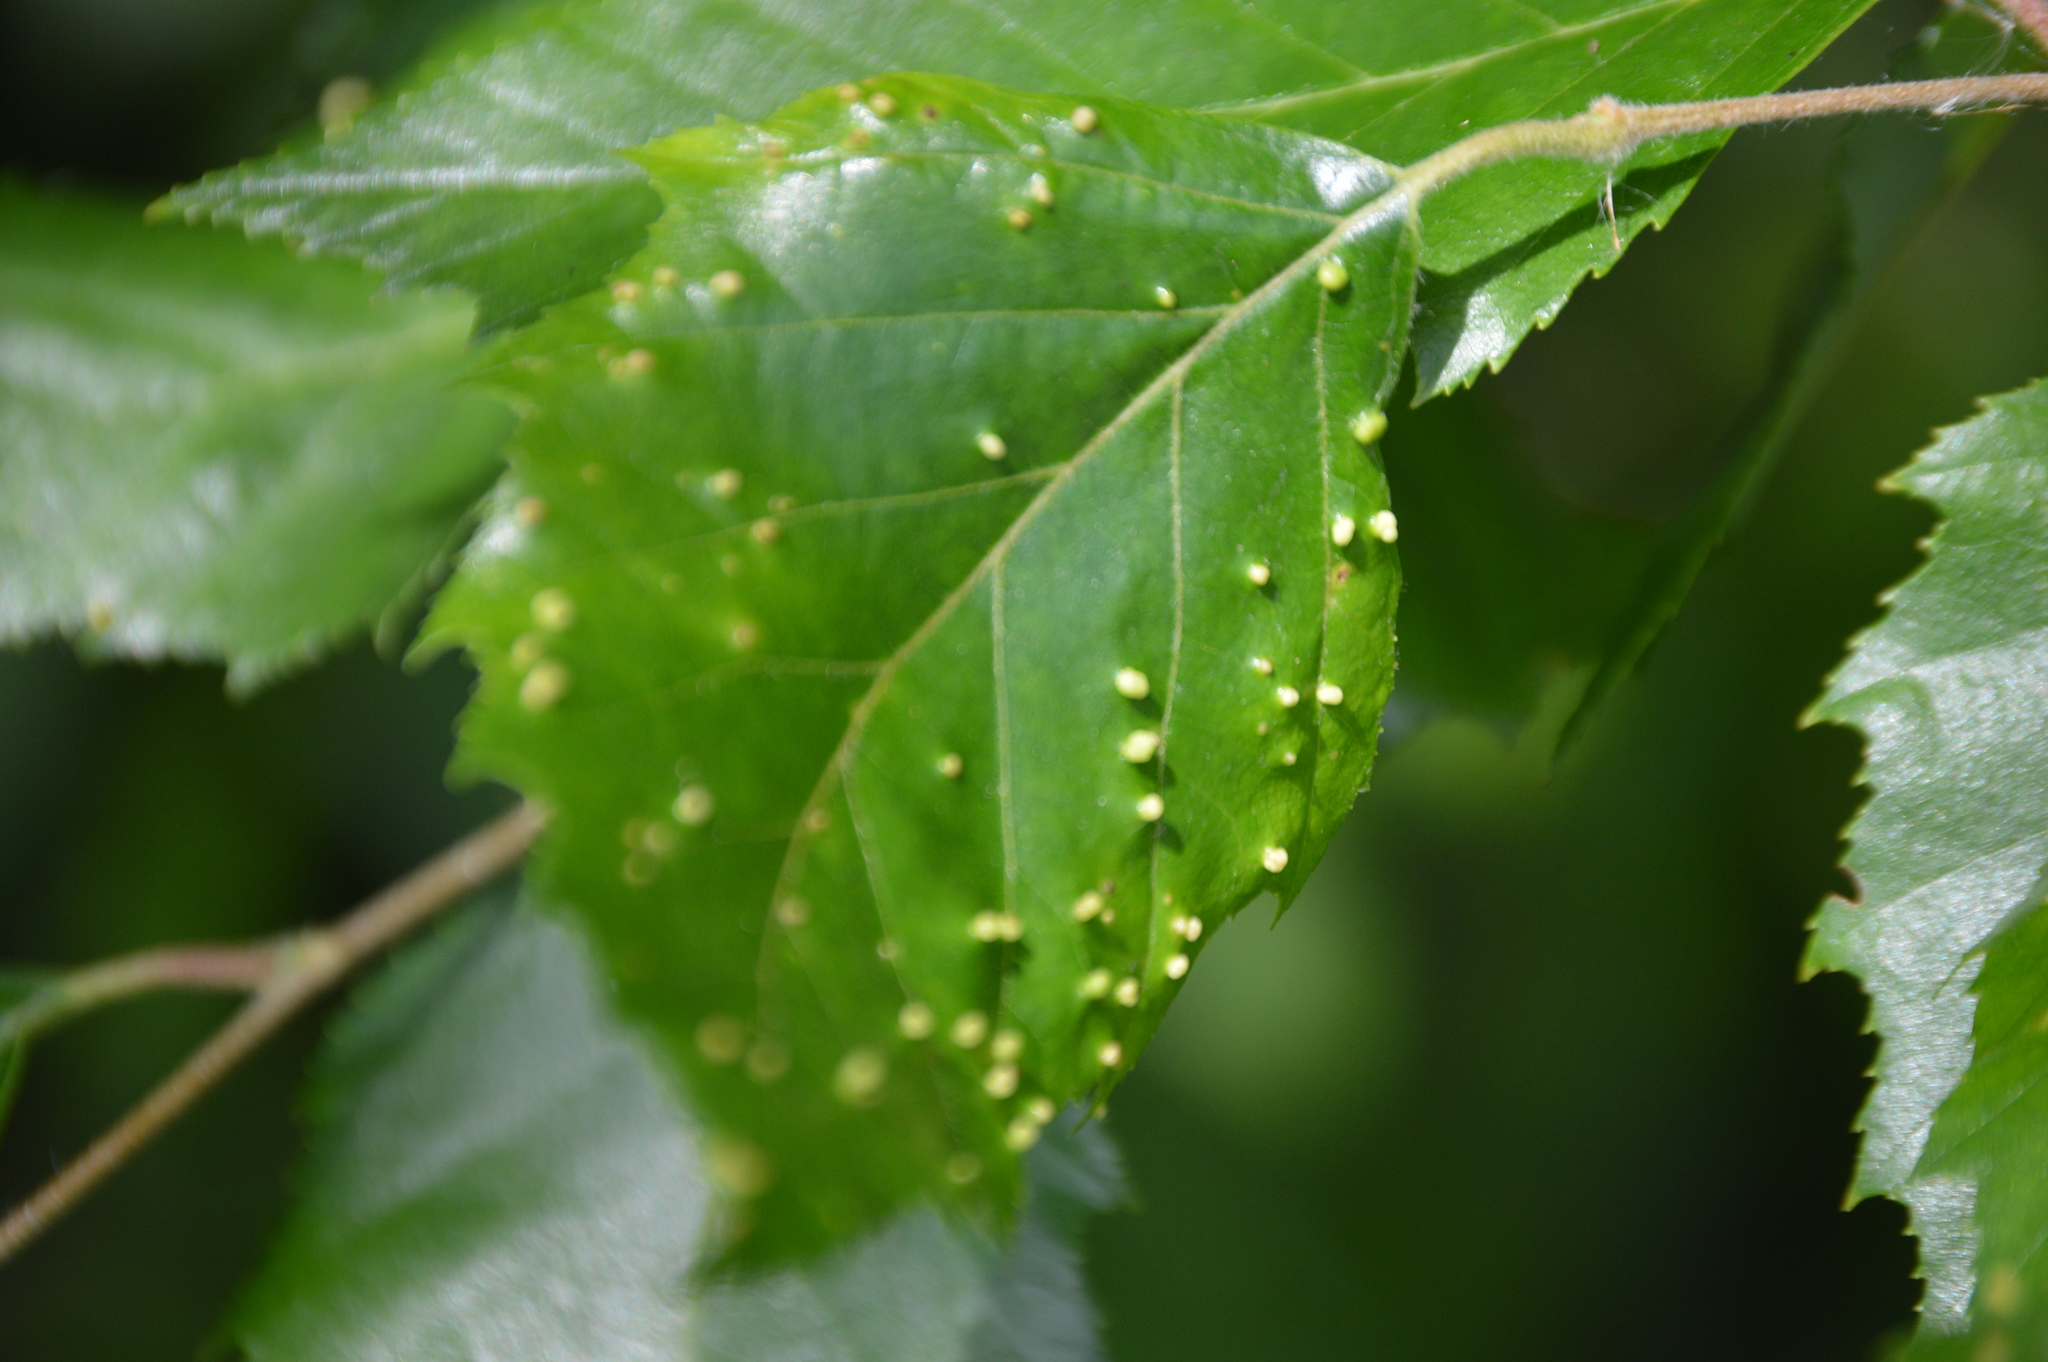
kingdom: Animalia
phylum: Arthropoda
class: Arachnida
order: Trombidiformes
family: Eriophyidae
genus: Aculus
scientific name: Aculus leionotus
